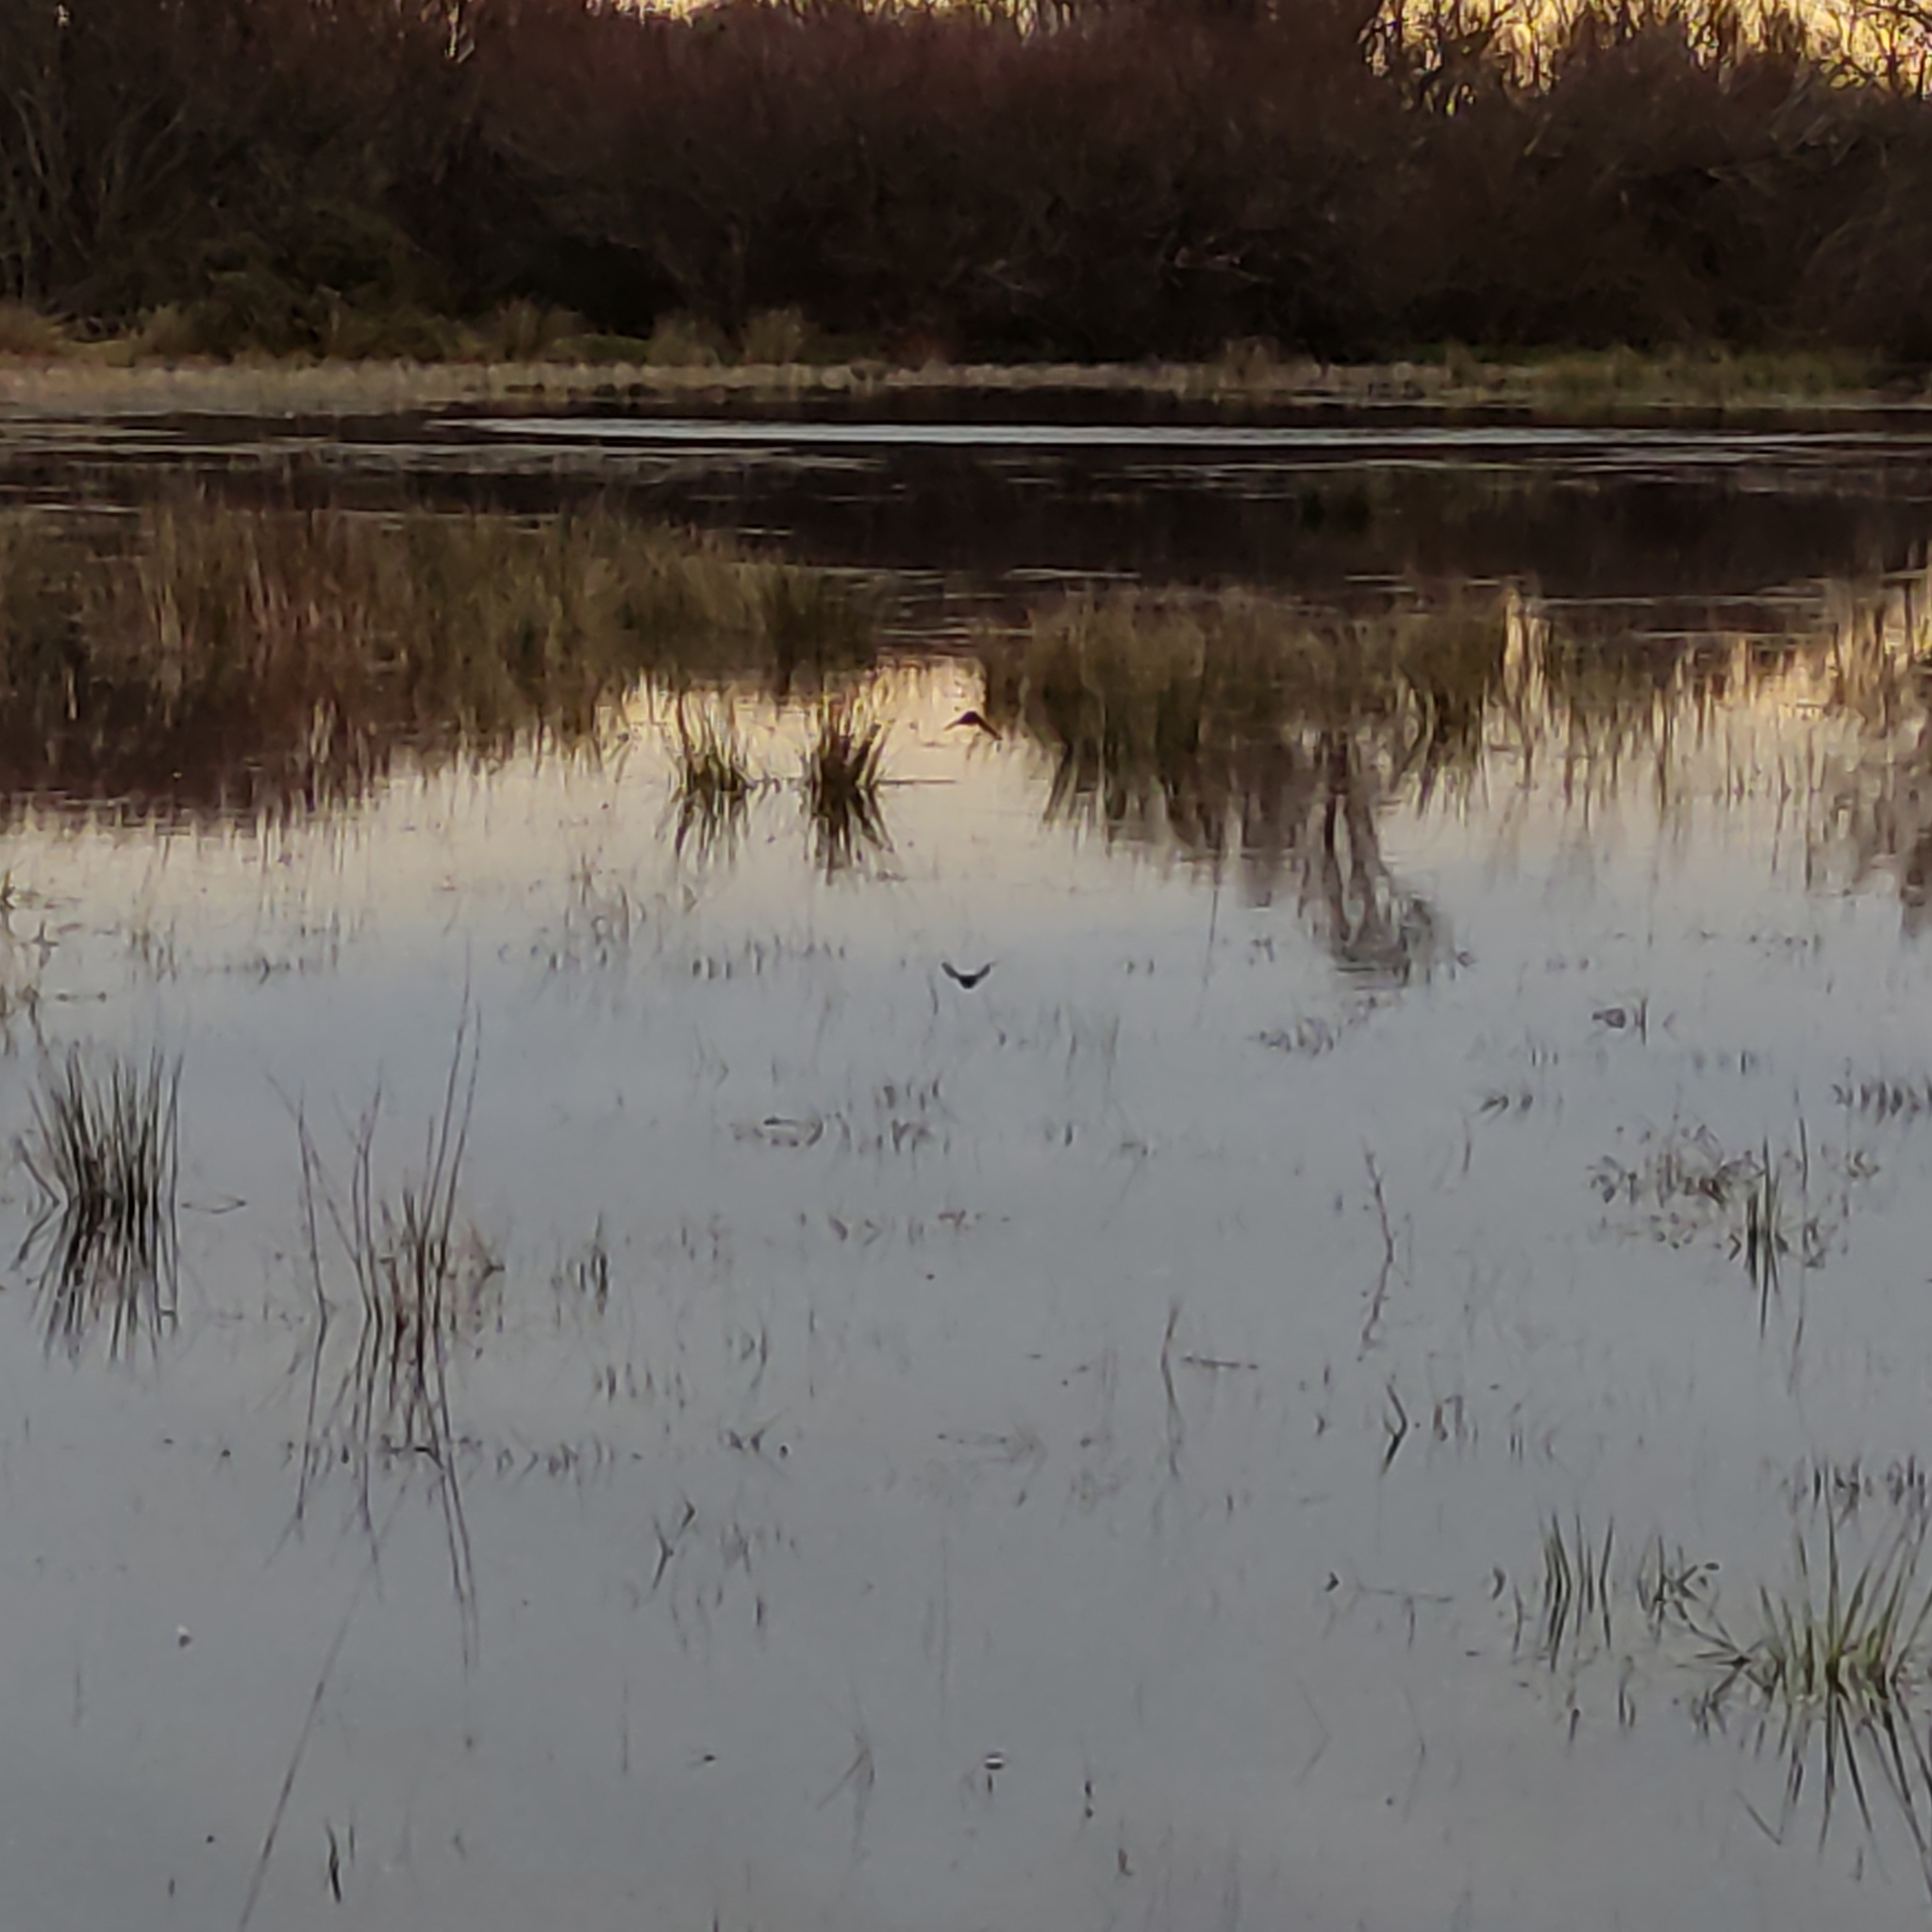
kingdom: Animalia
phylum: Chordata
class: Aves
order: Passeriformes
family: Hirundinidae
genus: Hirundo
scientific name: Hirundo neoxena
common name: Welcome swallow
